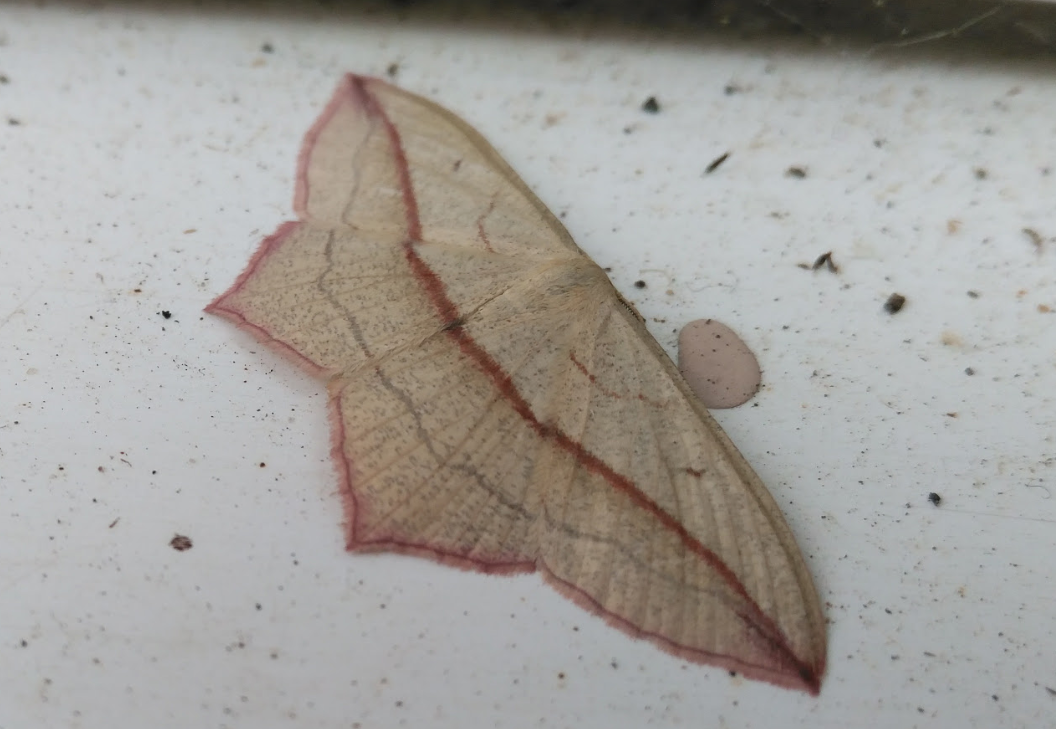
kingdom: Animalia
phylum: Arthropoda
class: Insecta
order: Lepidoptera
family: Geometridae
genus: Timandra
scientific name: Timandra comae
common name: Blood-vein
